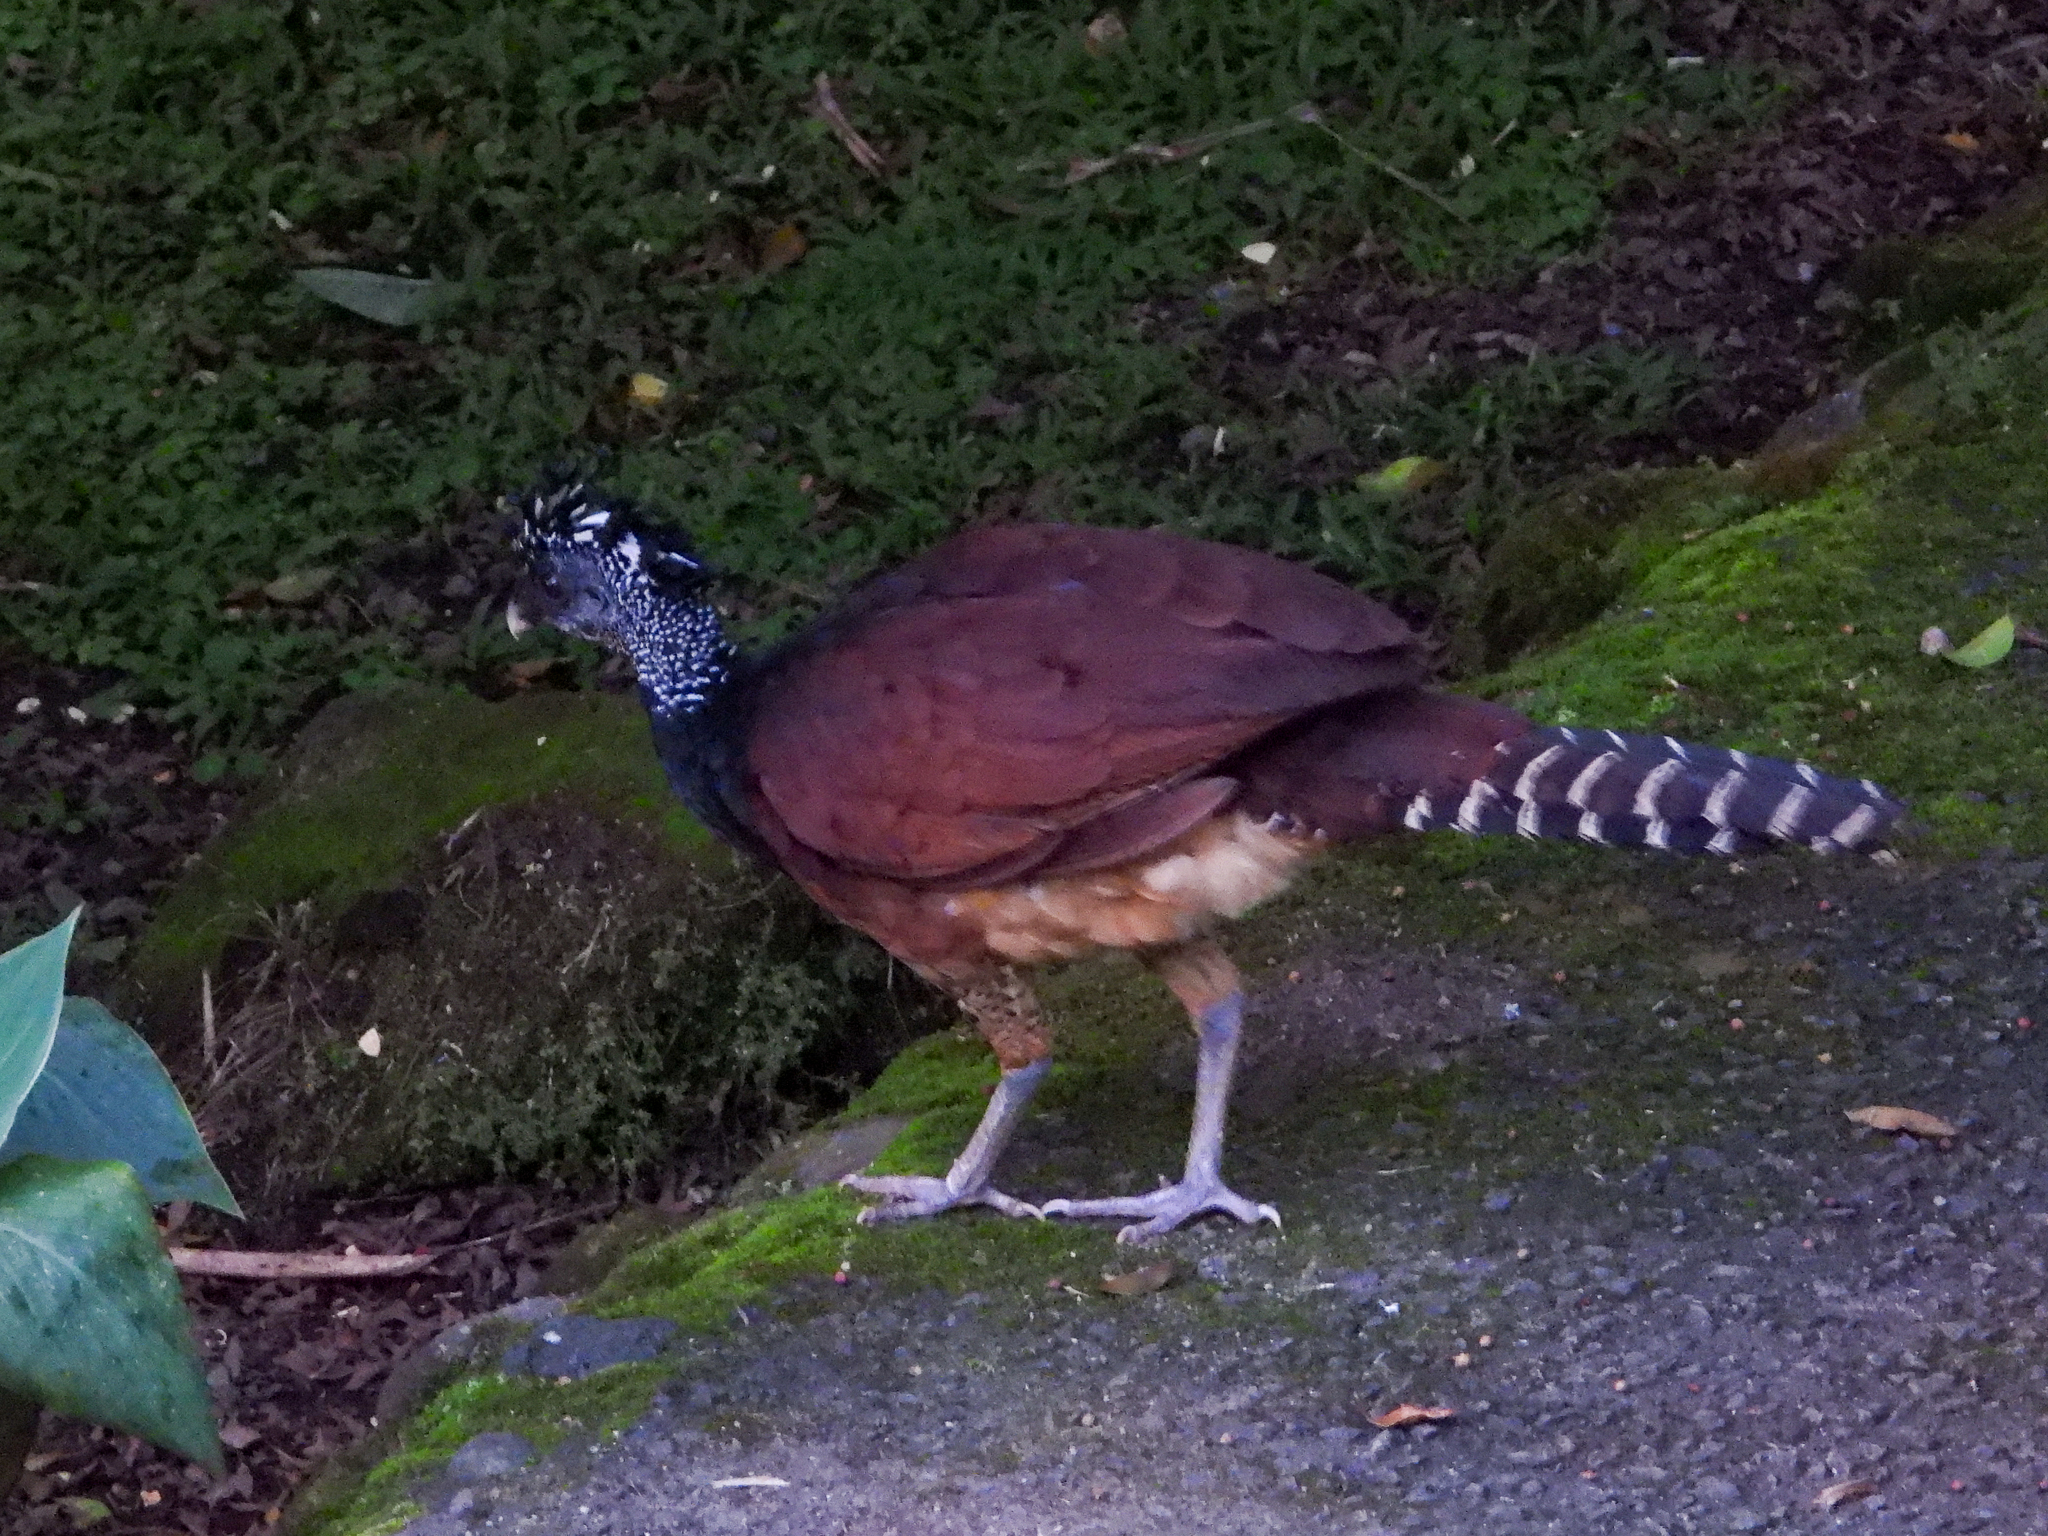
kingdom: Animalia
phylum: Chordata
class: Aves
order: Galliformes
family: Cracidae
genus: Crax
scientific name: Crax rubra
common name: Great curassow
